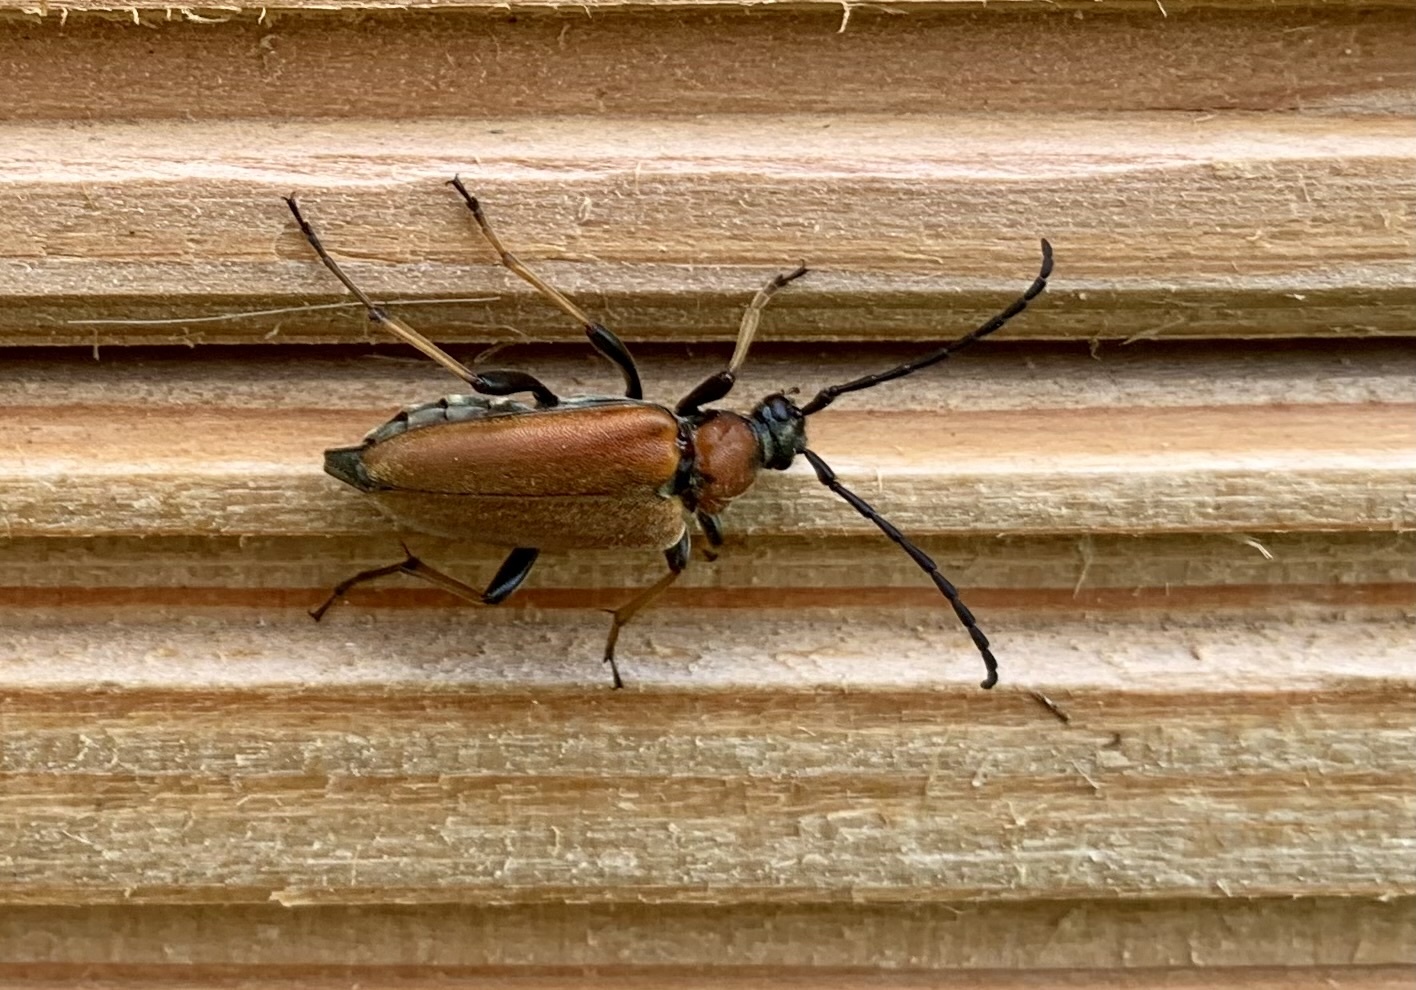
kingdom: Animalia
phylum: Arthropoda
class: Insecta
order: Coleoptera
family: Cerambycidae
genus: Stictoleptura
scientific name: Stictoleptura rubra
